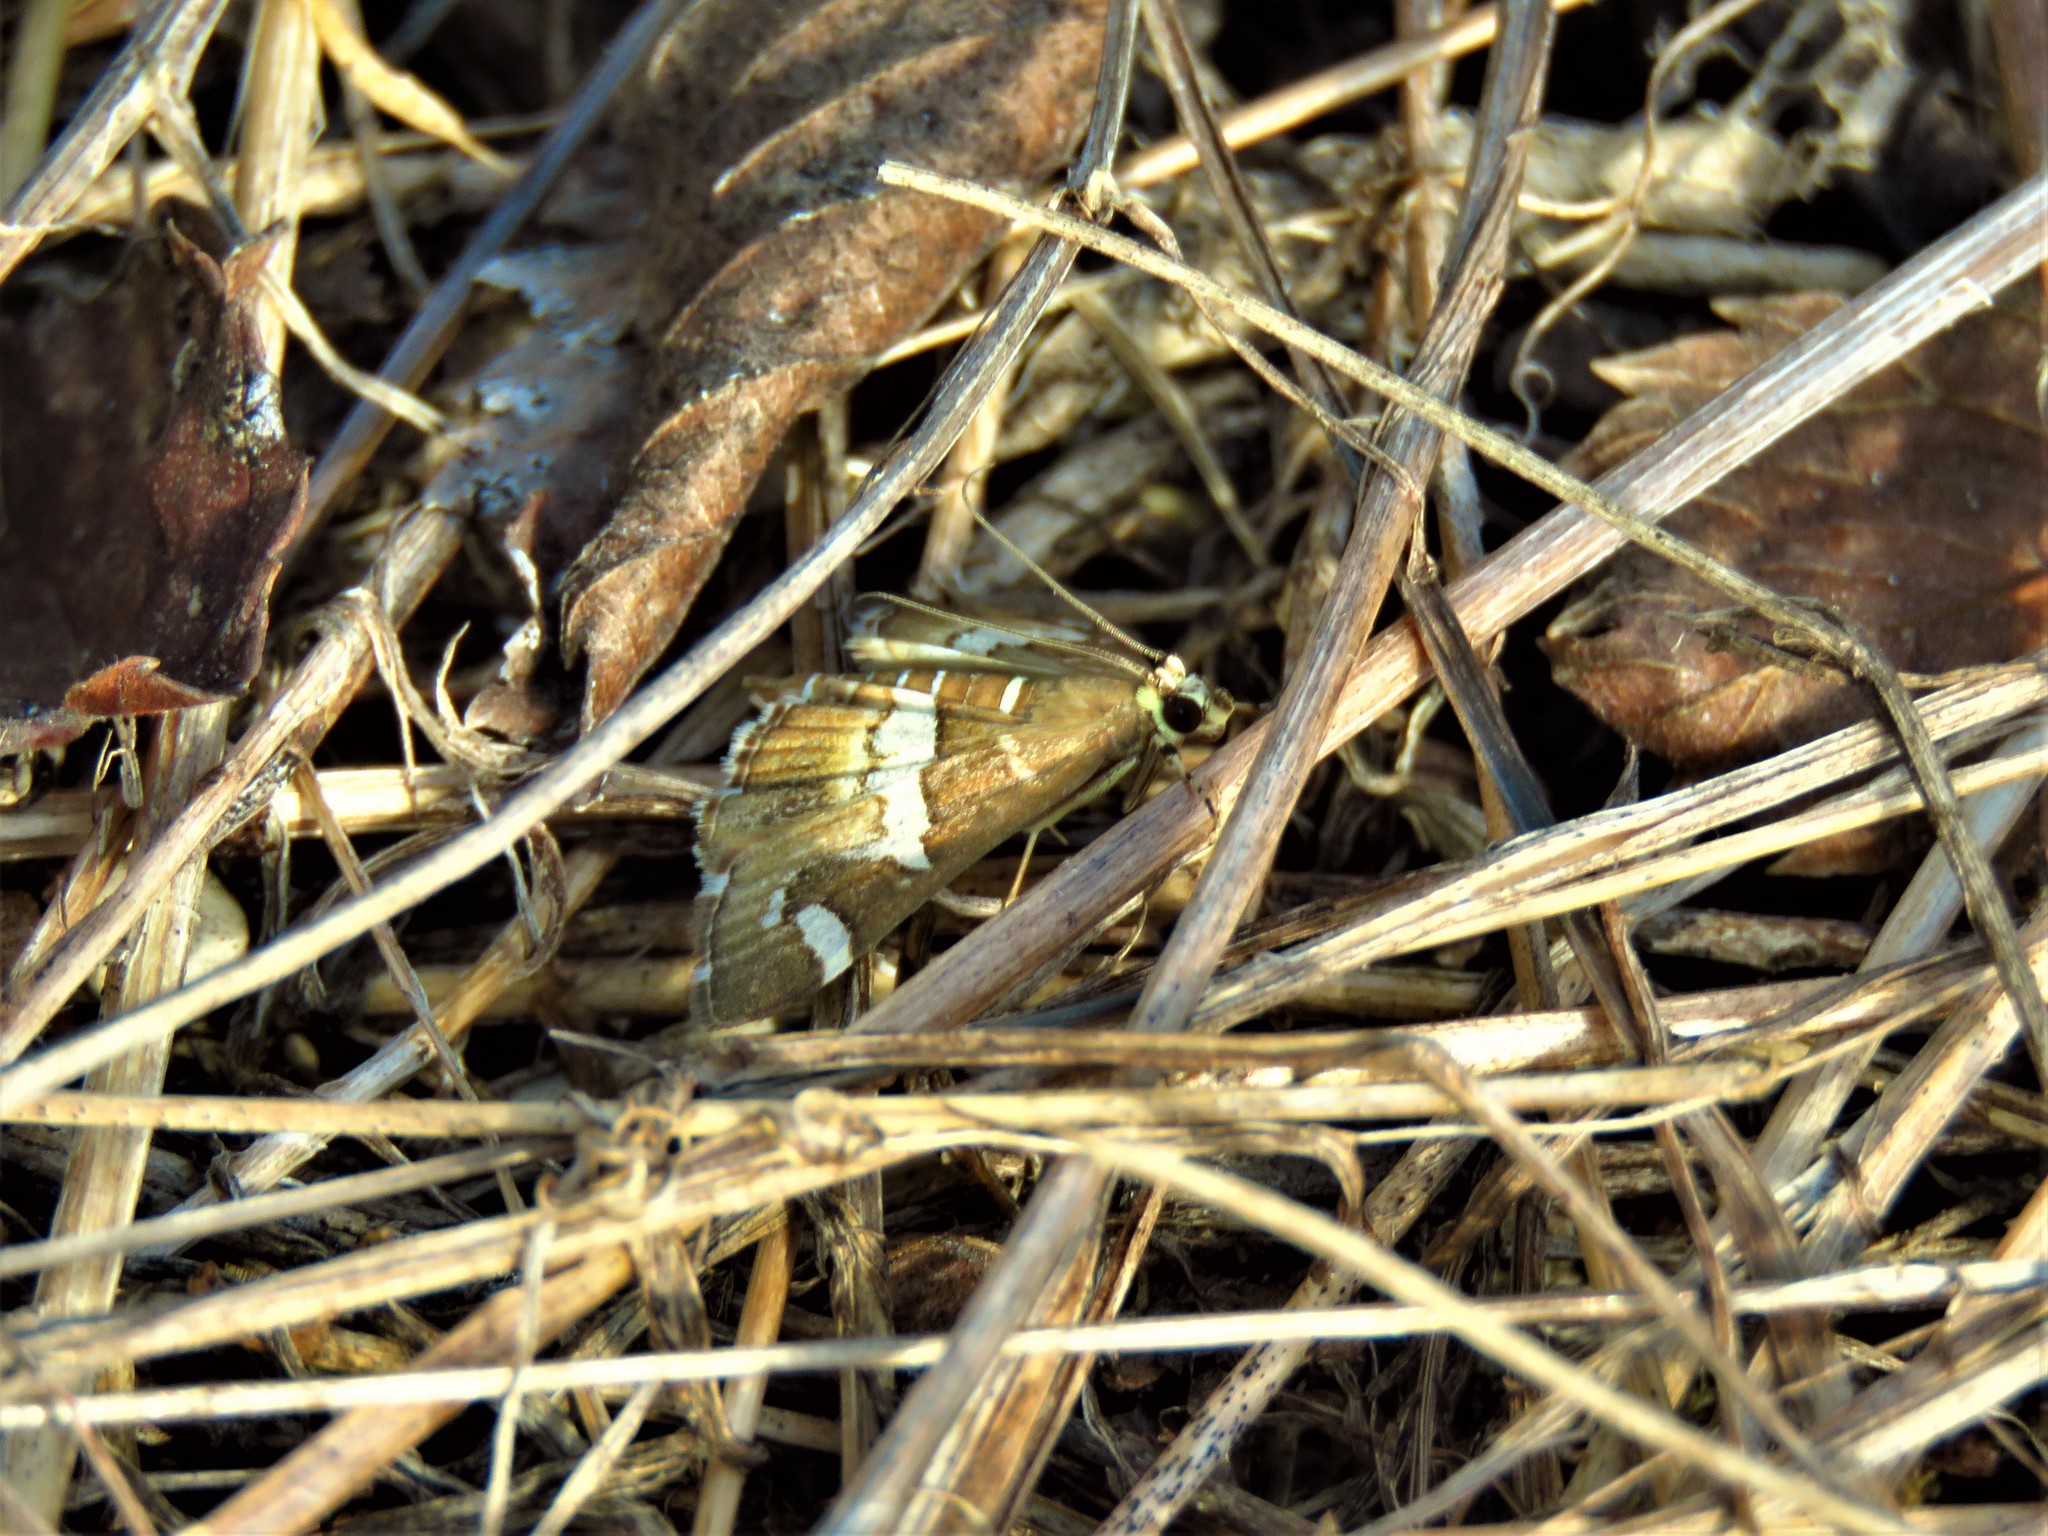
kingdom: Animalia
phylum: Arthropoda
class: Insecta
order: Lepidoptera
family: Crambidae
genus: Spoladea
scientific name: Spoladea recurvalis
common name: Beet webworm moth
